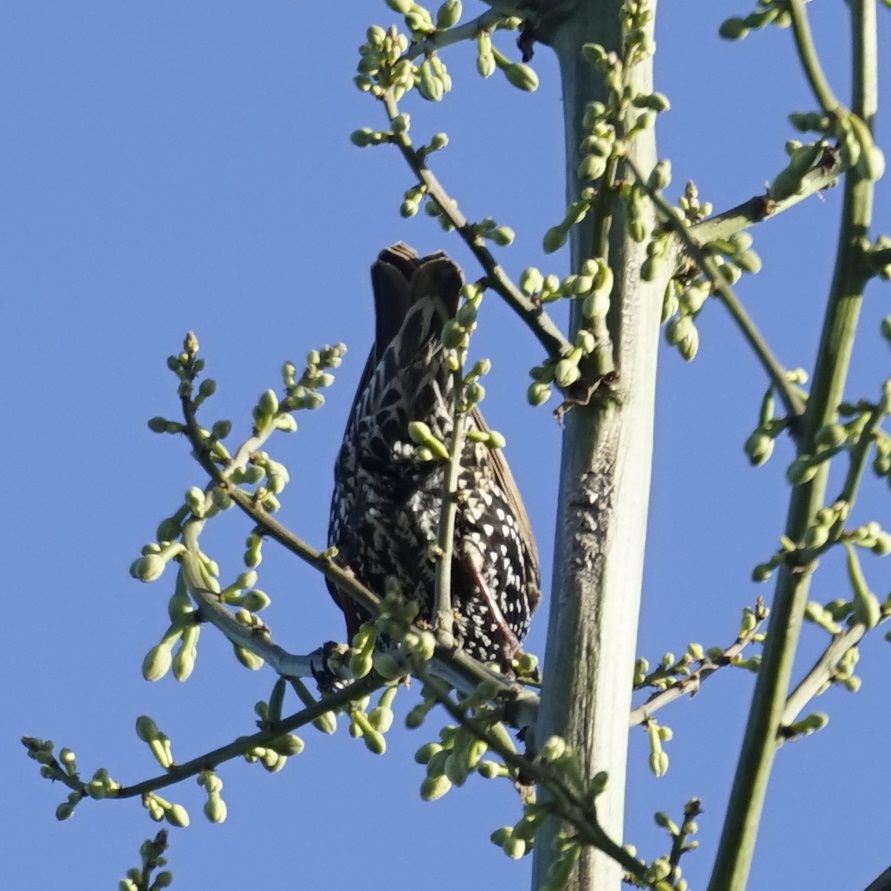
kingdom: Animalia
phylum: Chordata
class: Aves
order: Passeriformes
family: Sturnidae
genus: Sturnus
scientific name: Sturnus vulgaris
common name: Common starling
